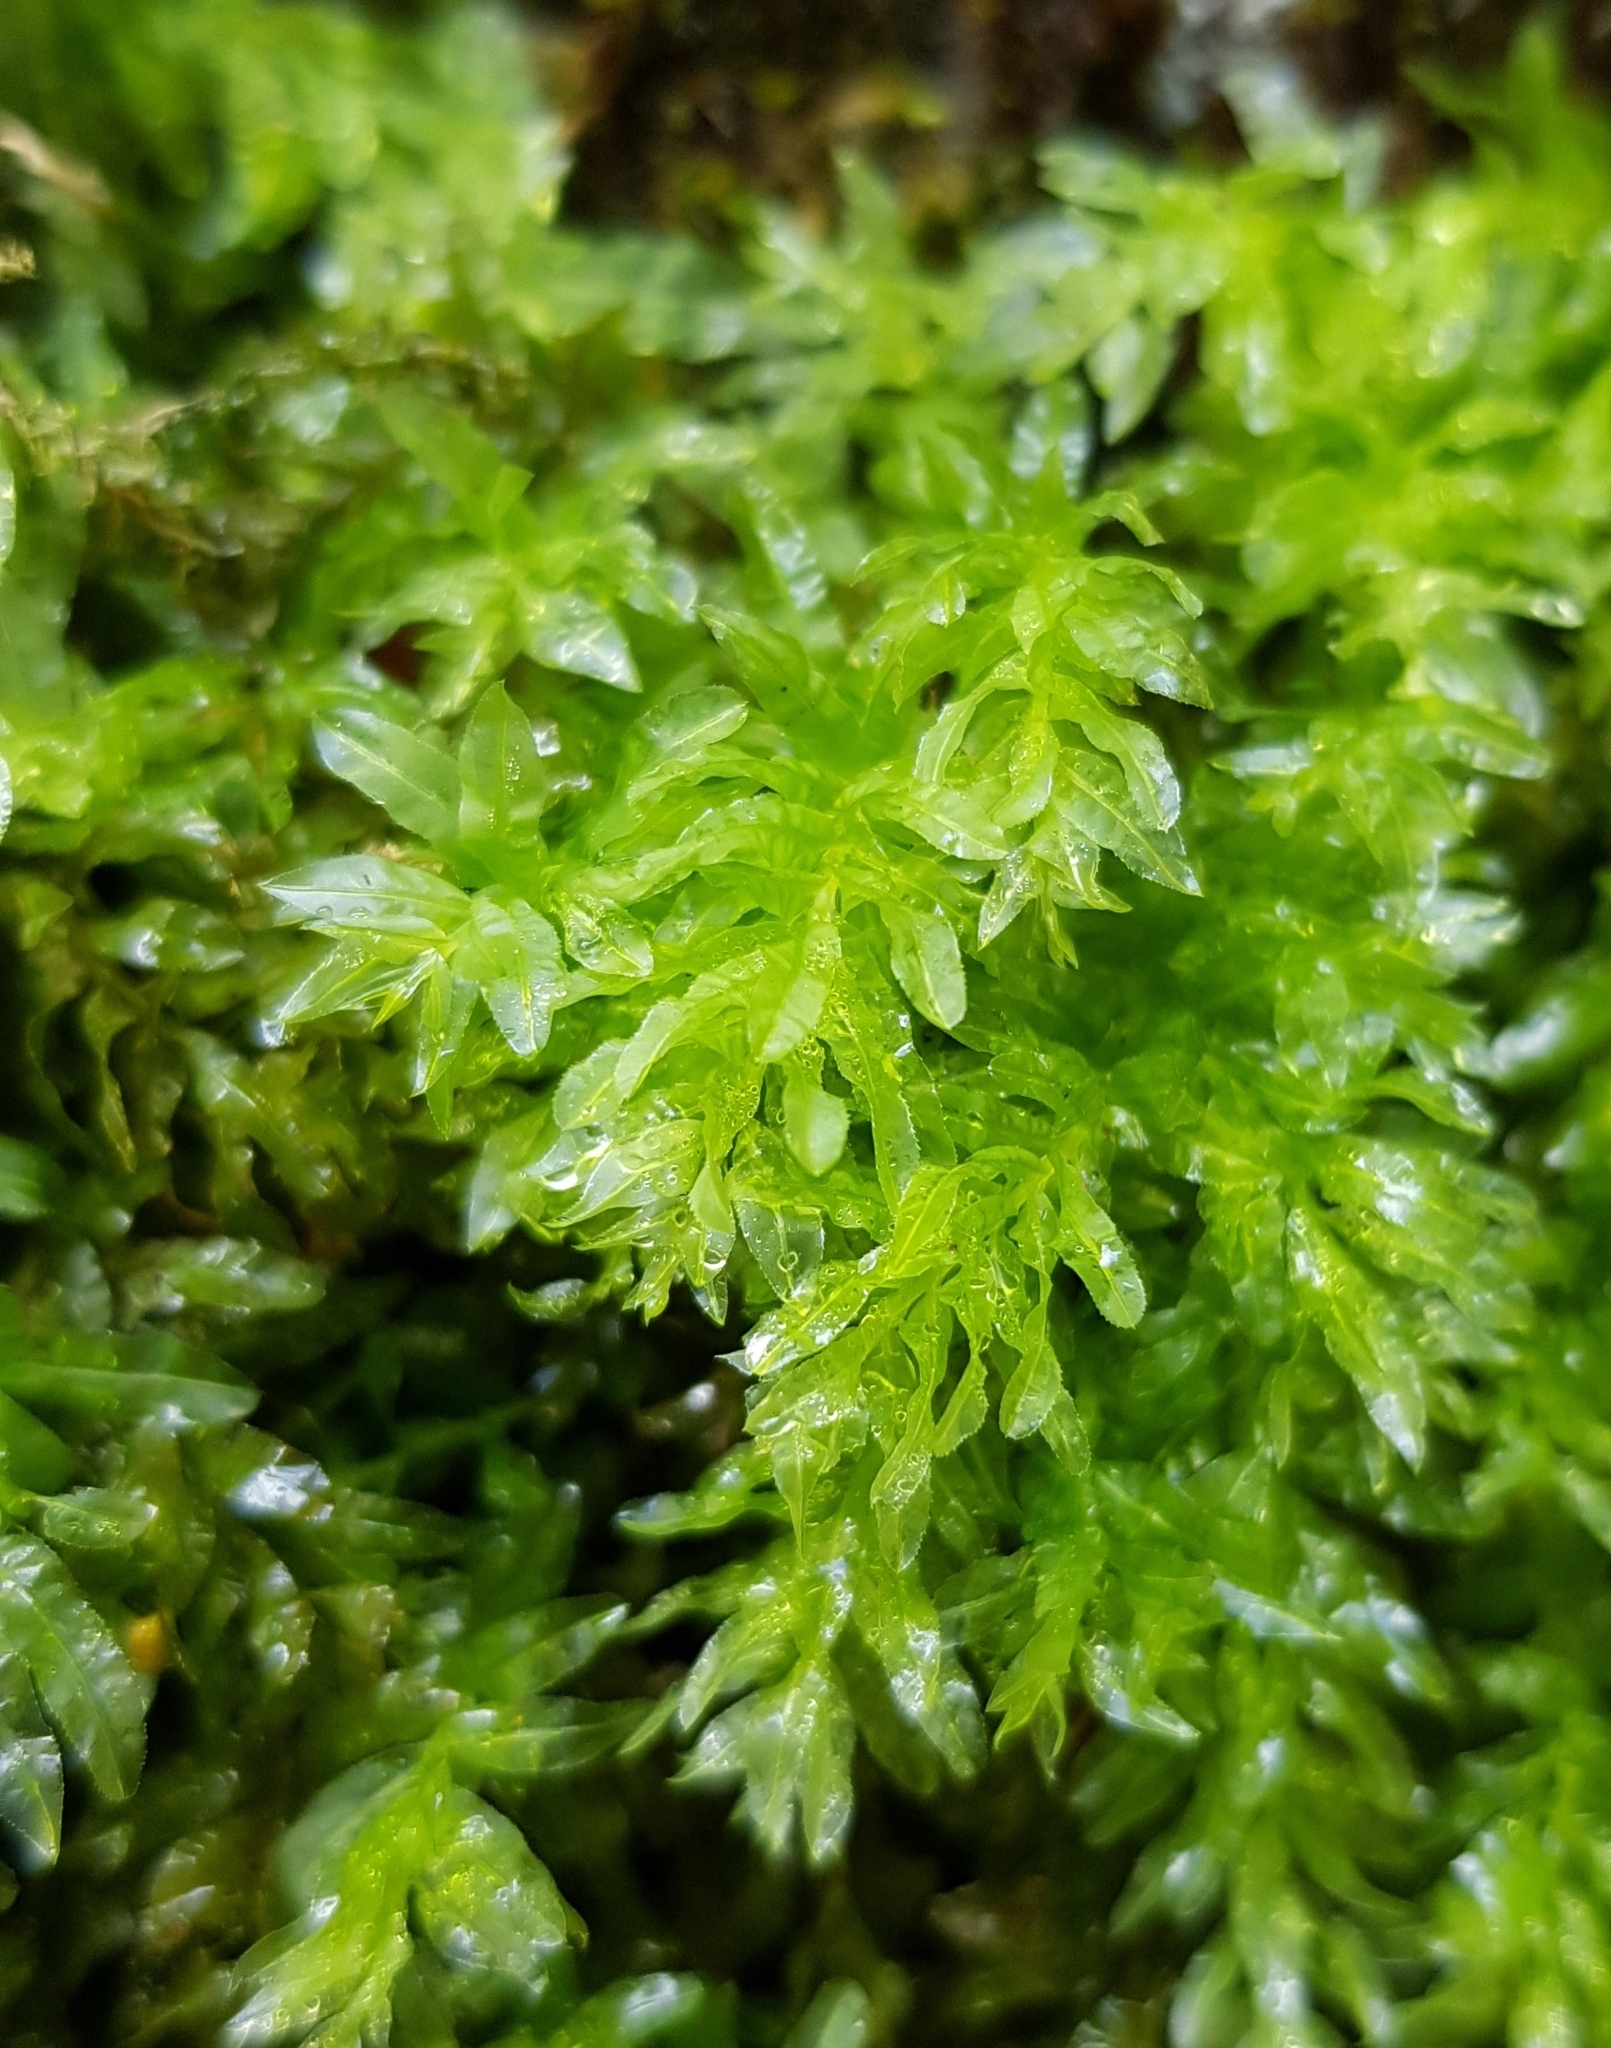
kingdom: Plantae
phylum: Bryophyta
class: Bryopsida
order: Bryales
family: Mniaceae
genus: Plagiomnium
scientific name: Plagiomnium undulatum
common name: Hart's-tongue thyme-moss
